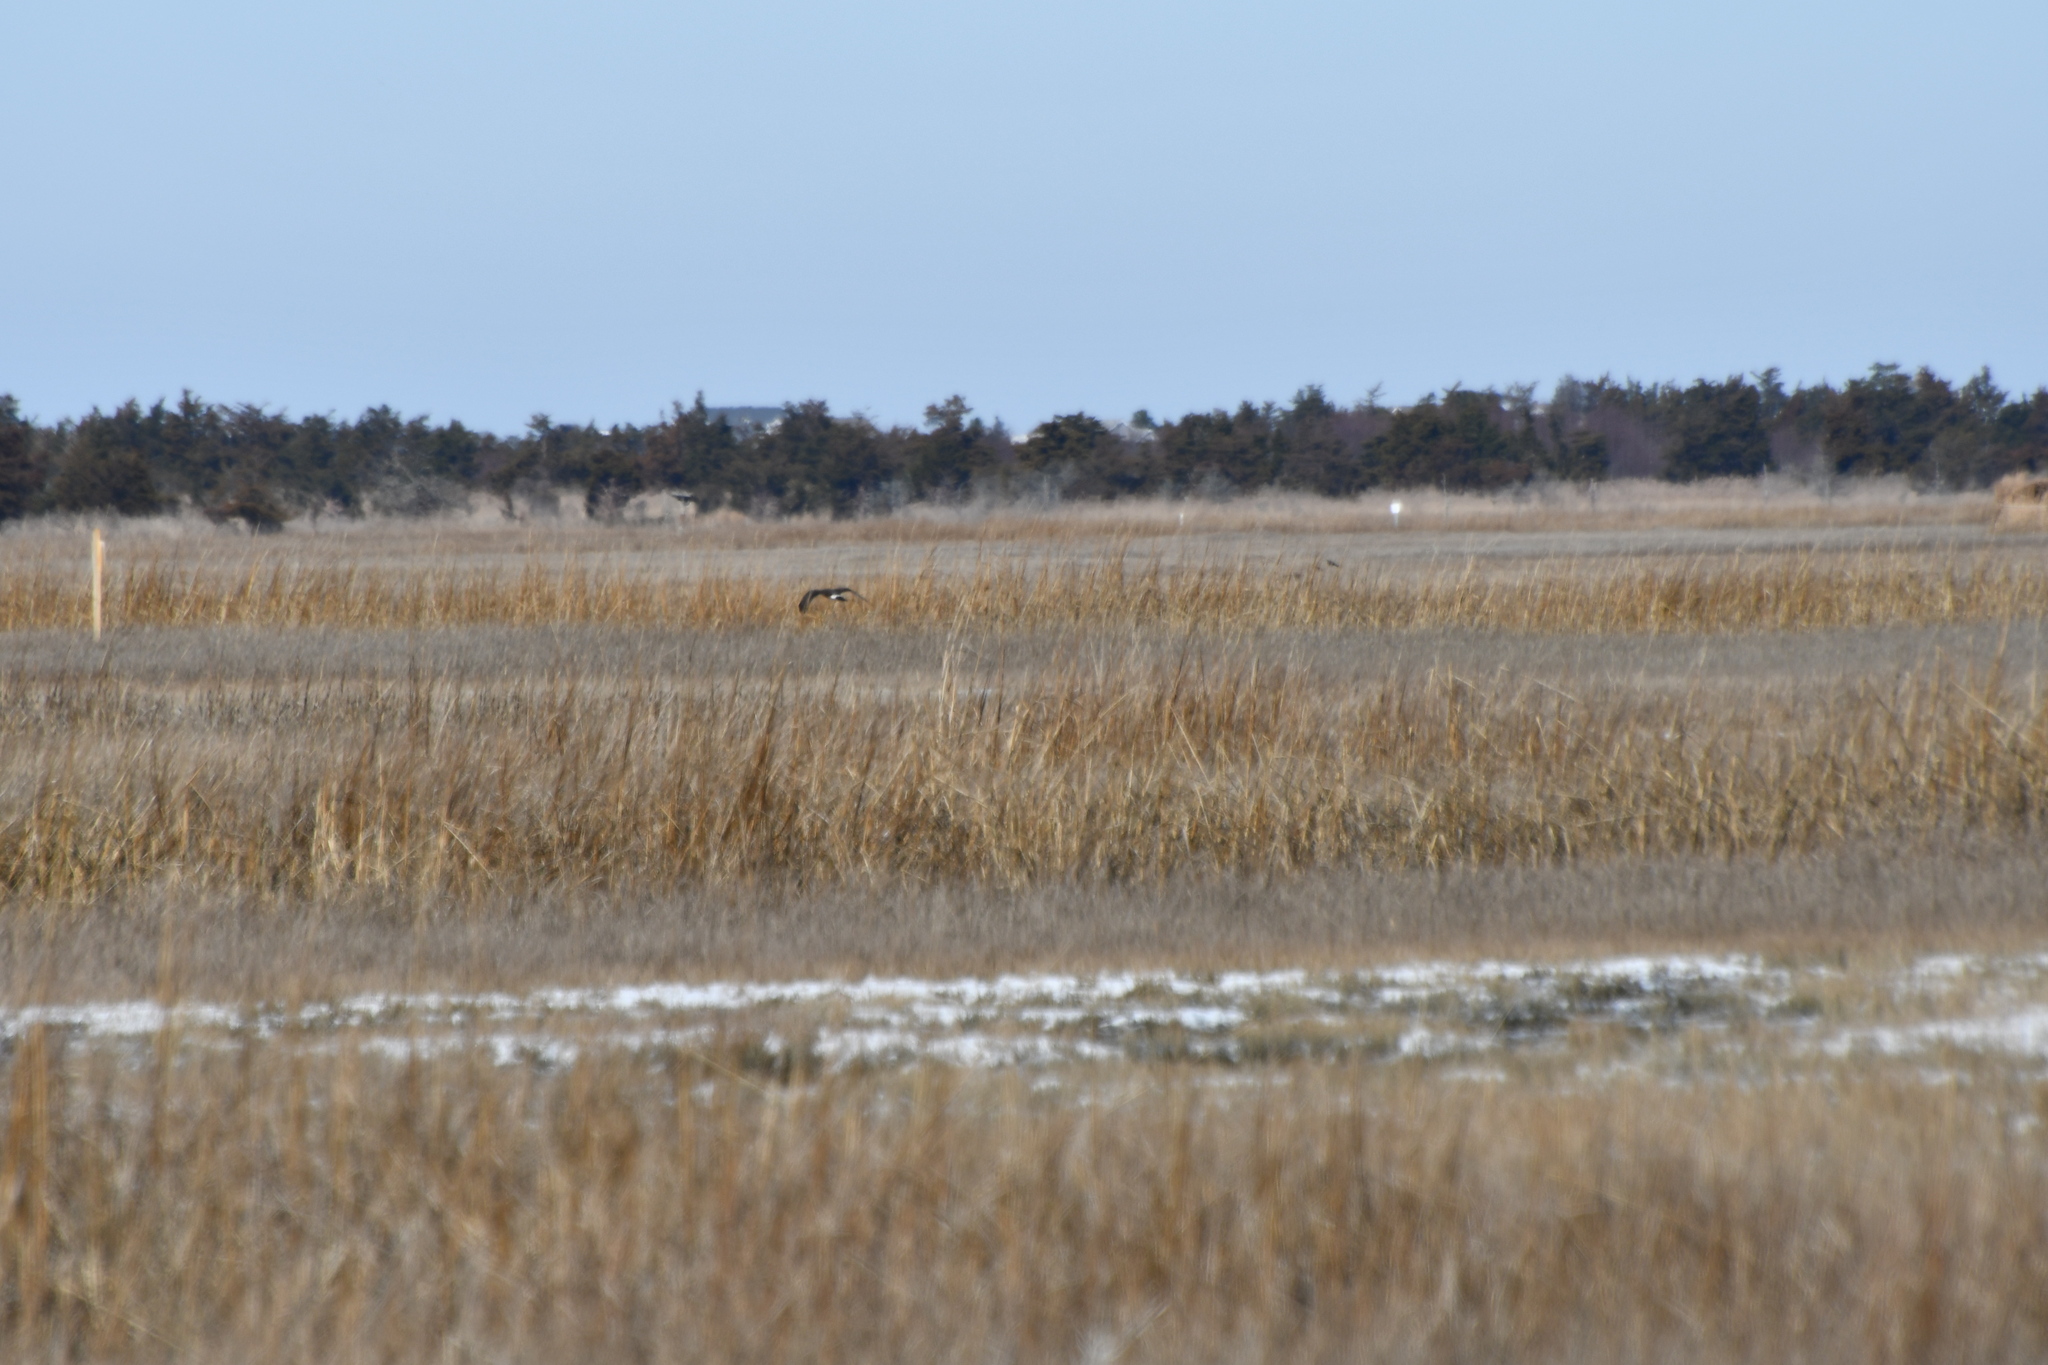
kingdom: Animalia
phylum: Chordata
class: Aves
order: Accipitriformes
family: Accipitridae
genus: Circus
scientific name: Circus cyaneus
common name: Hen harrier
